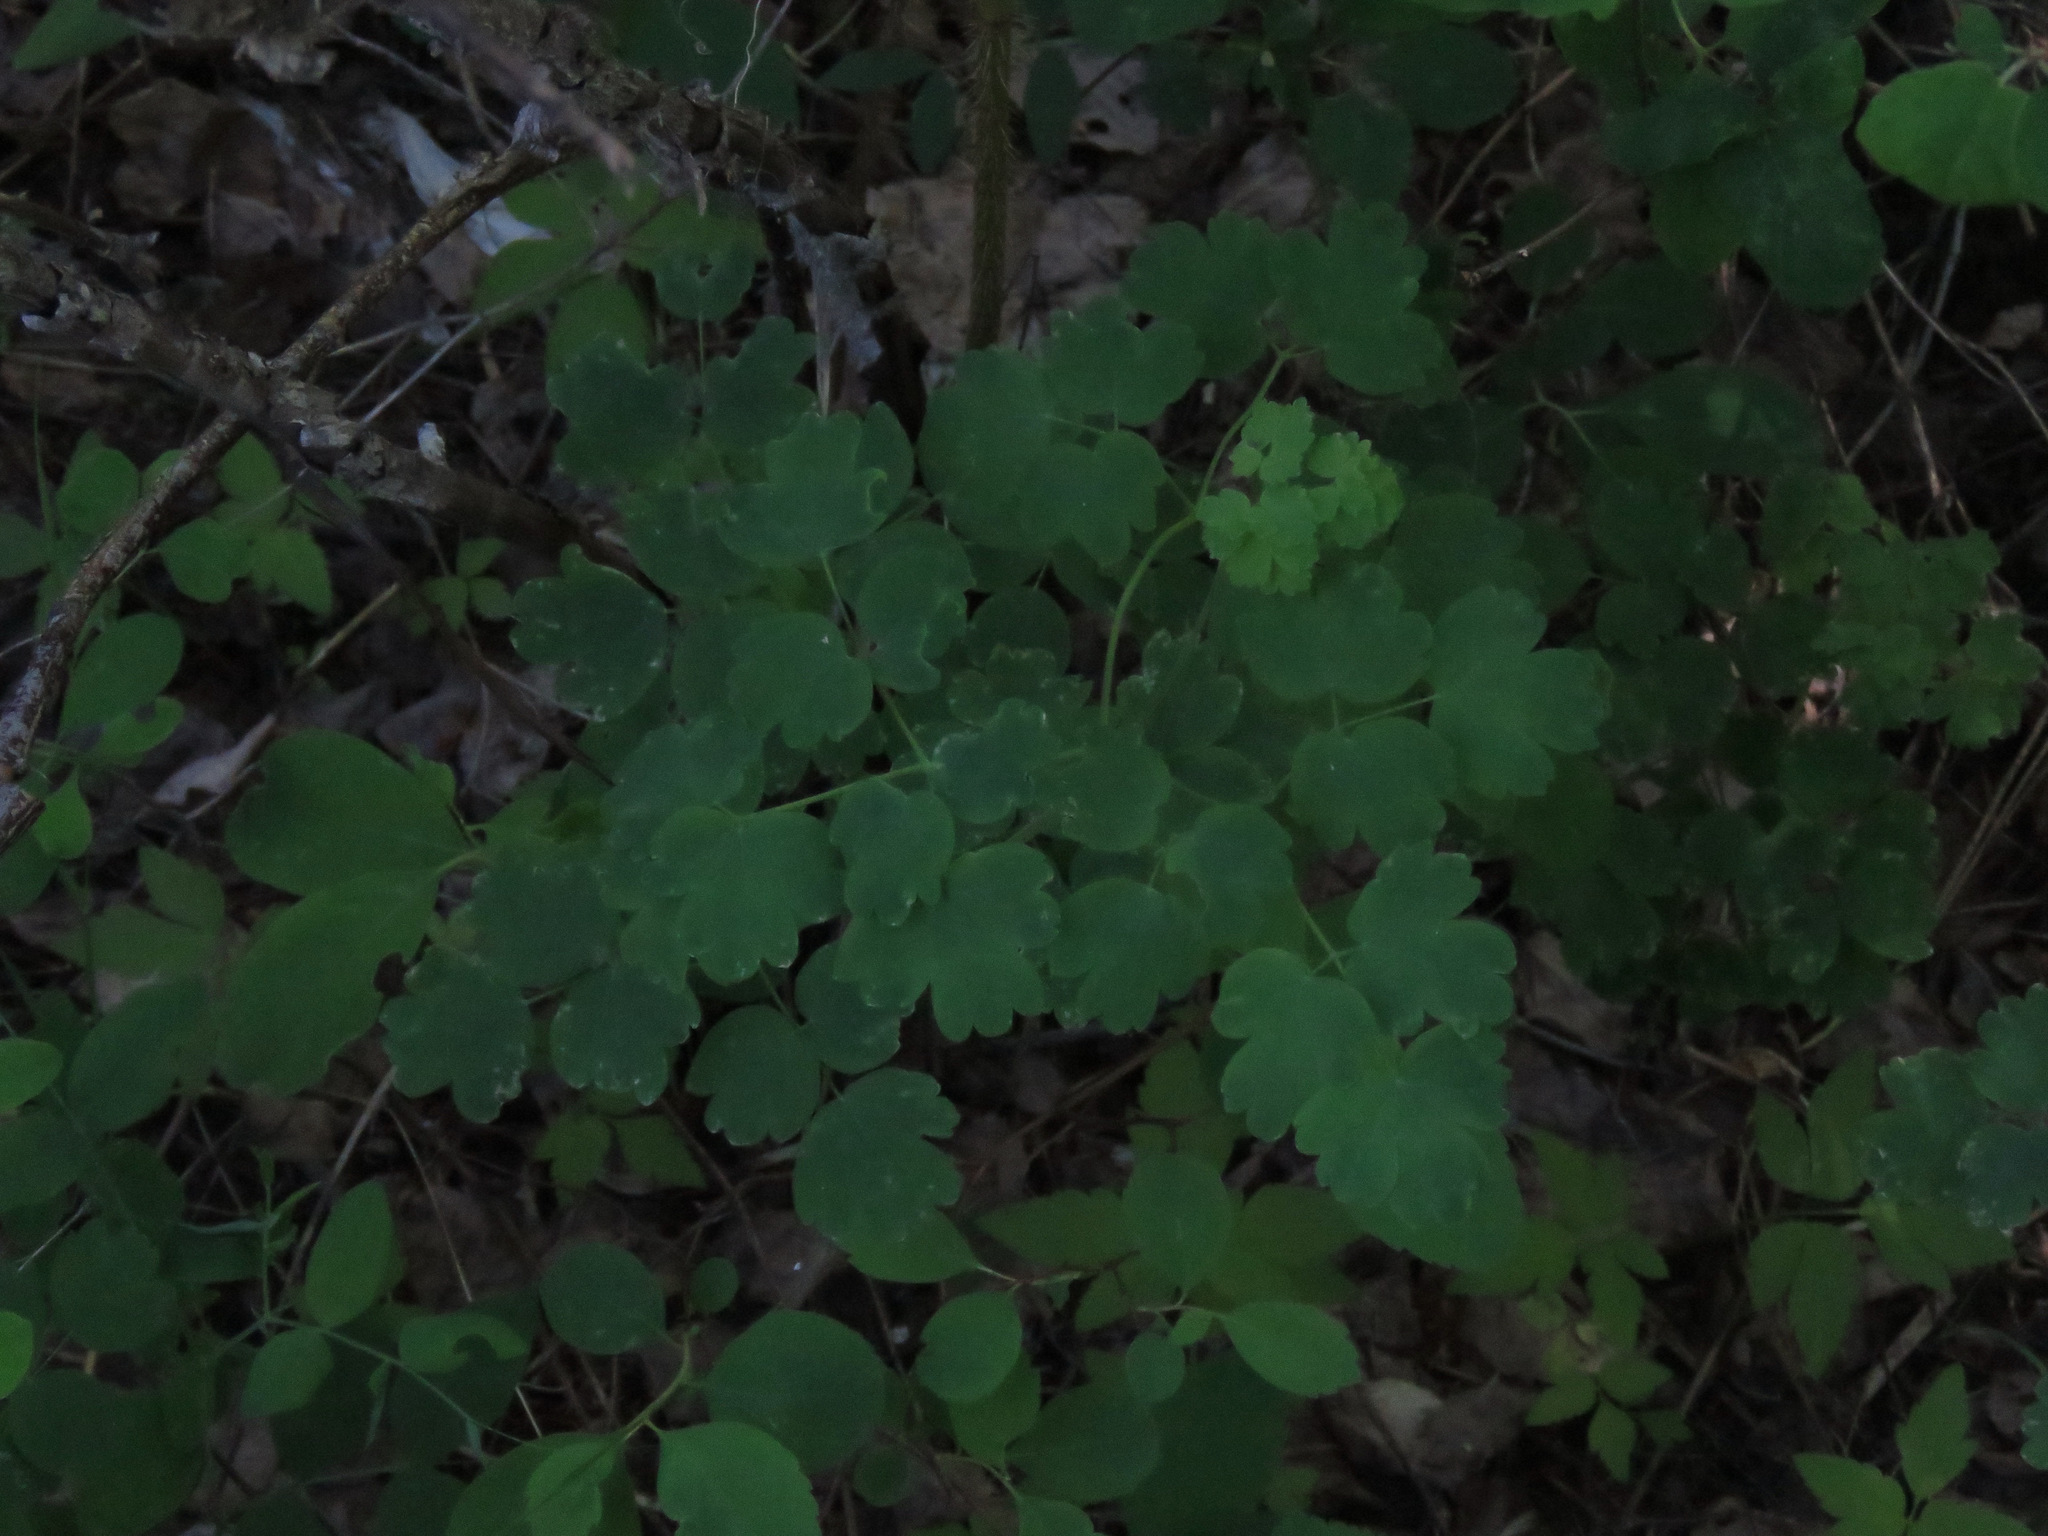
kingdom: Plantae
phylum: Tracheophyta
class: Magnoliopsida
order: Ranunculales
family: Ranunculaceae
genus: Thalictrum
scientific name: Thalictrum occidentale
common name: Western meadow-rue
